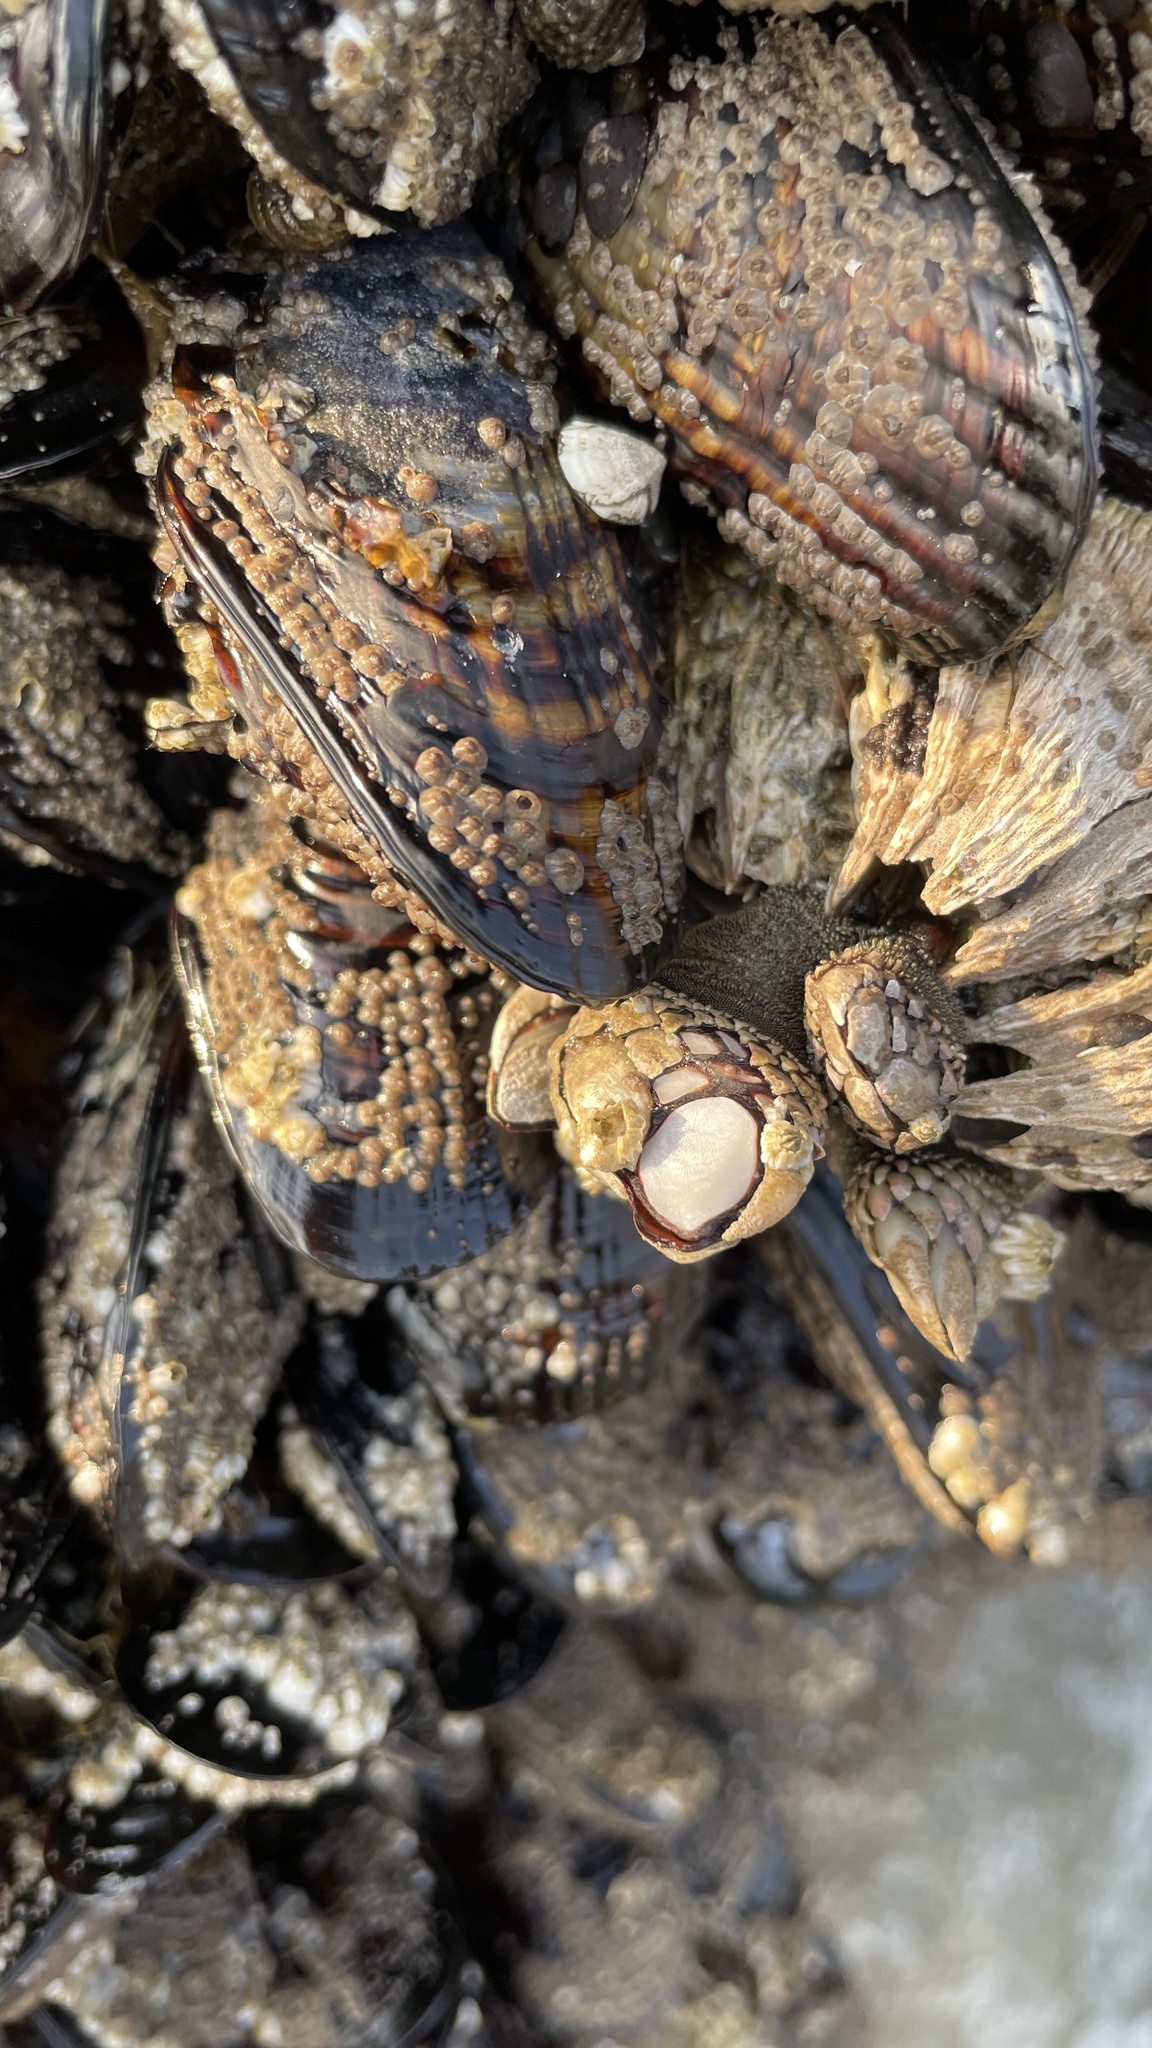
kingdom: Animalia
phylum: Arthropoda
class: Maxillopoda
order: Pedunculata
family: Pollicipedidae
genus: Pollicipes
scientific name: Pollicipes polymerus
